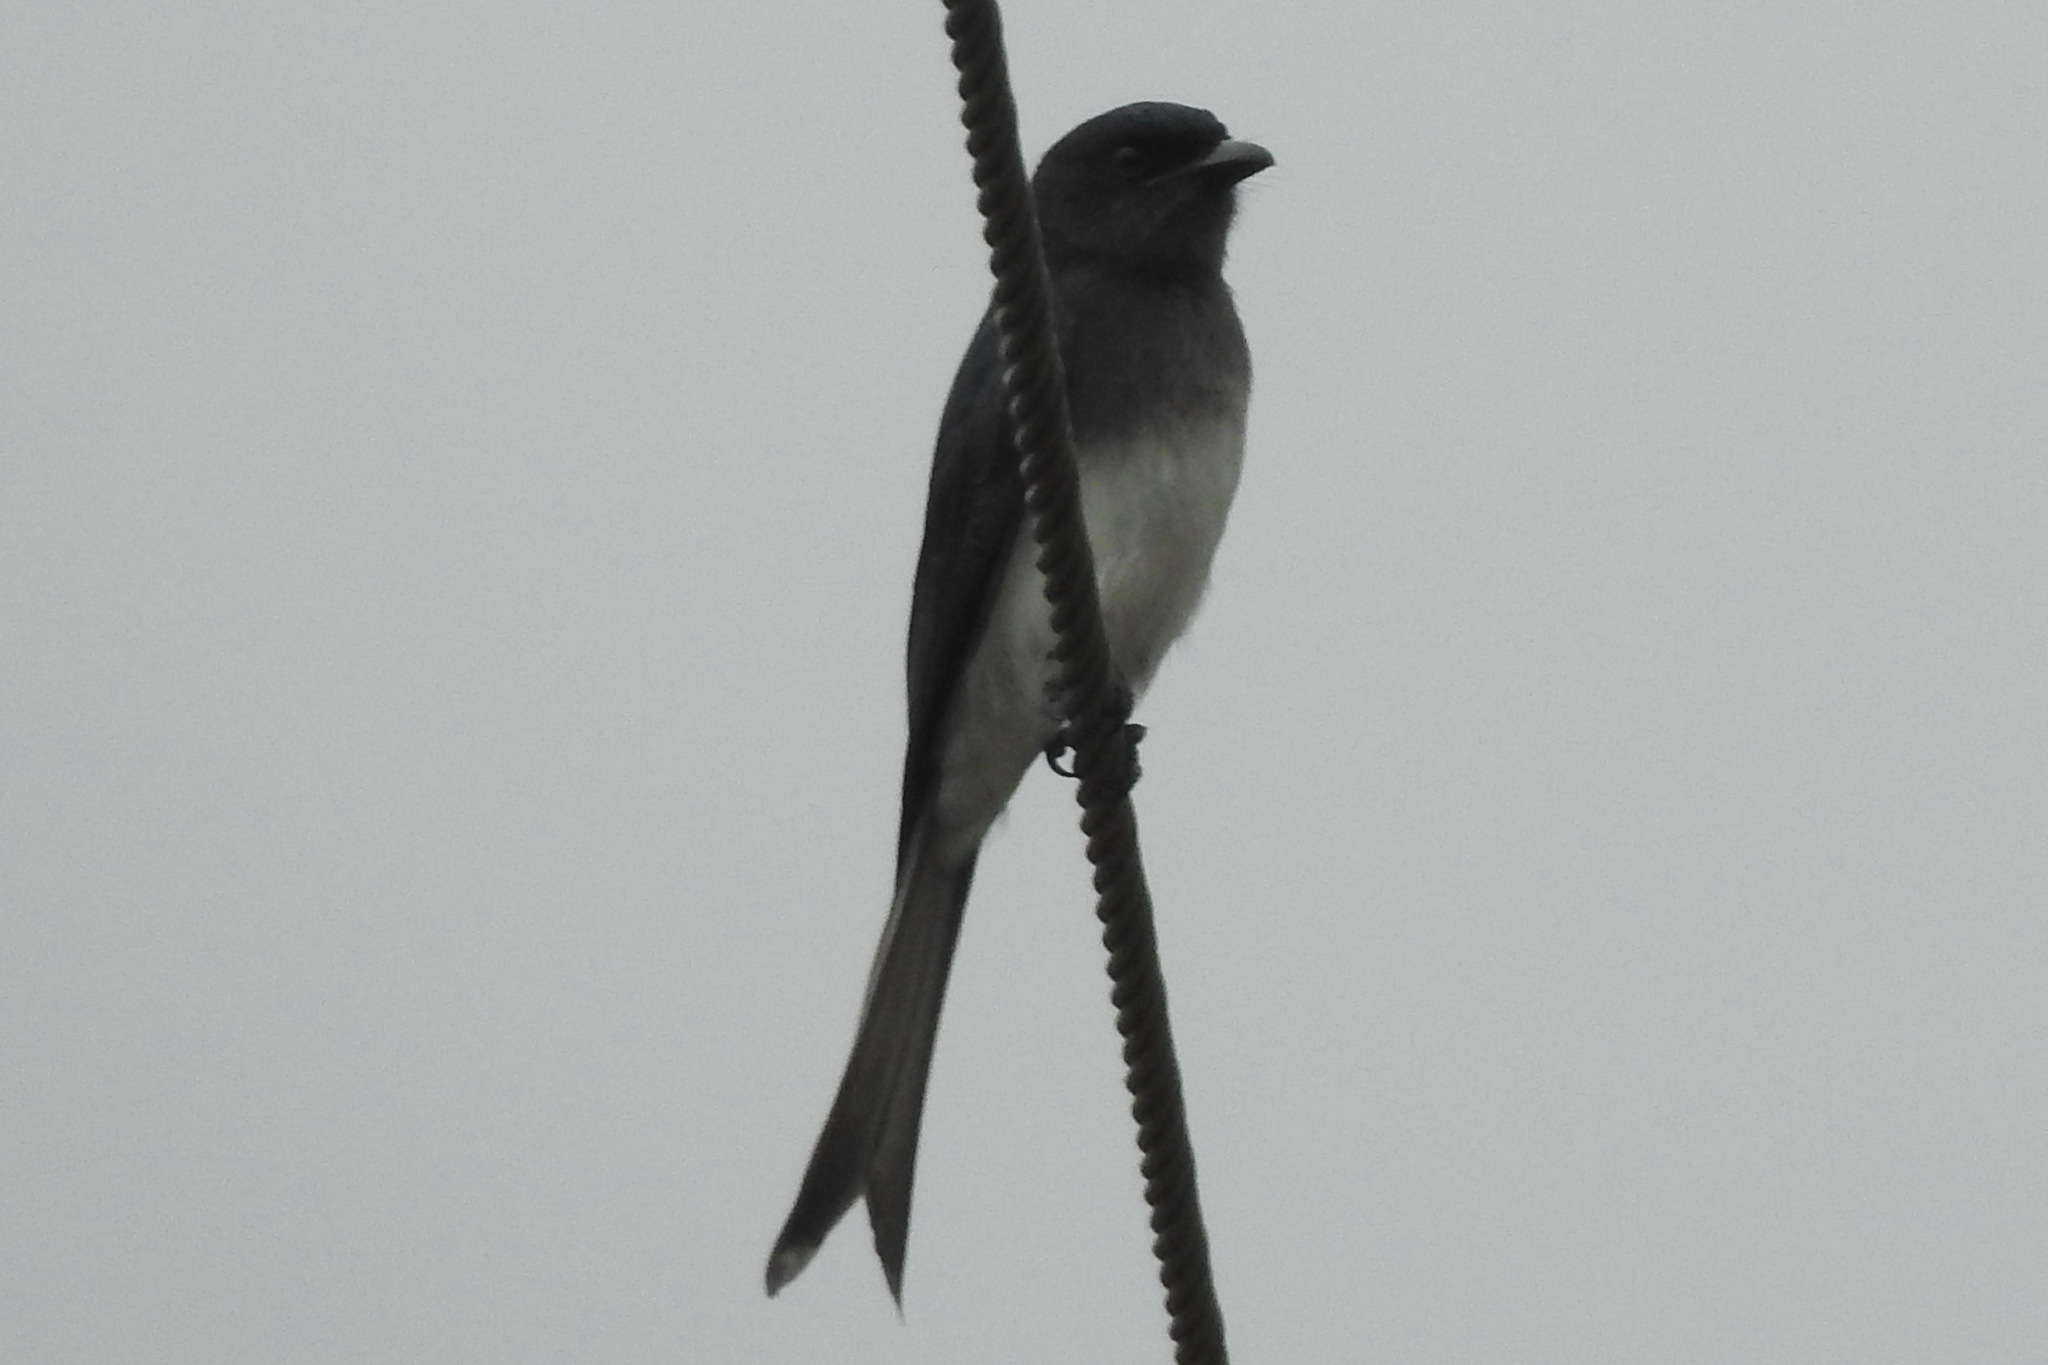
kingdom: Animalia
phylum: Chordata
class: Aves
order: Passeriformes
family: Dicruridae
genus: Dicrurus
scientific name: Dicrurus caerulescens
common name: White-bellied drongo
